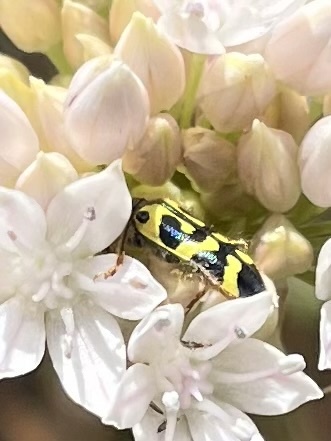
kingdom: Animalia
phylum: Arthropoda
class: Insecta
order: Coleoptera
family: Cleridae
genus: Trichodes
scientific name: Trichodes ornatus
